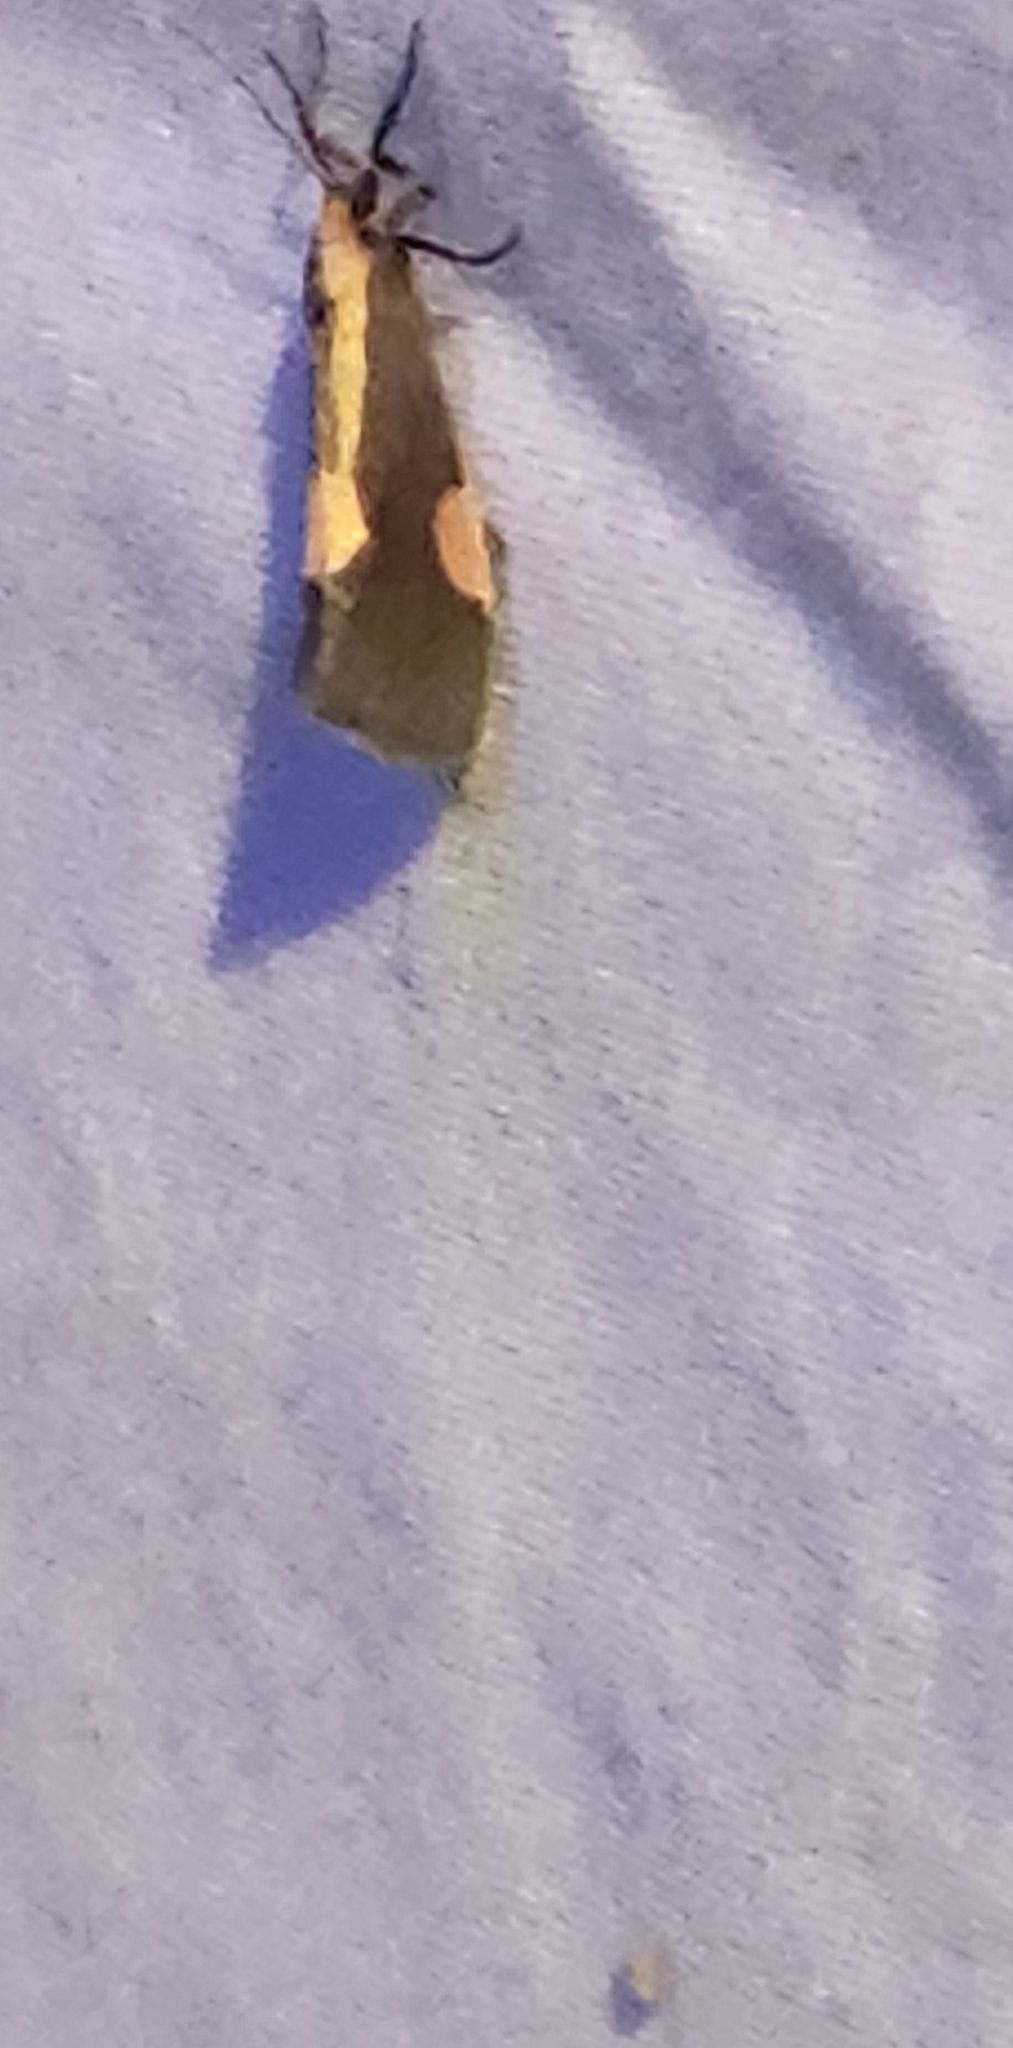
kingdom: Animalia
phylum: Arthropoda
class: Insecta
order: Lepidoptera
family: Erebidae
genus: Cisthene
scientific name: Cisthene packardii
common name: Packard's lichen moth
